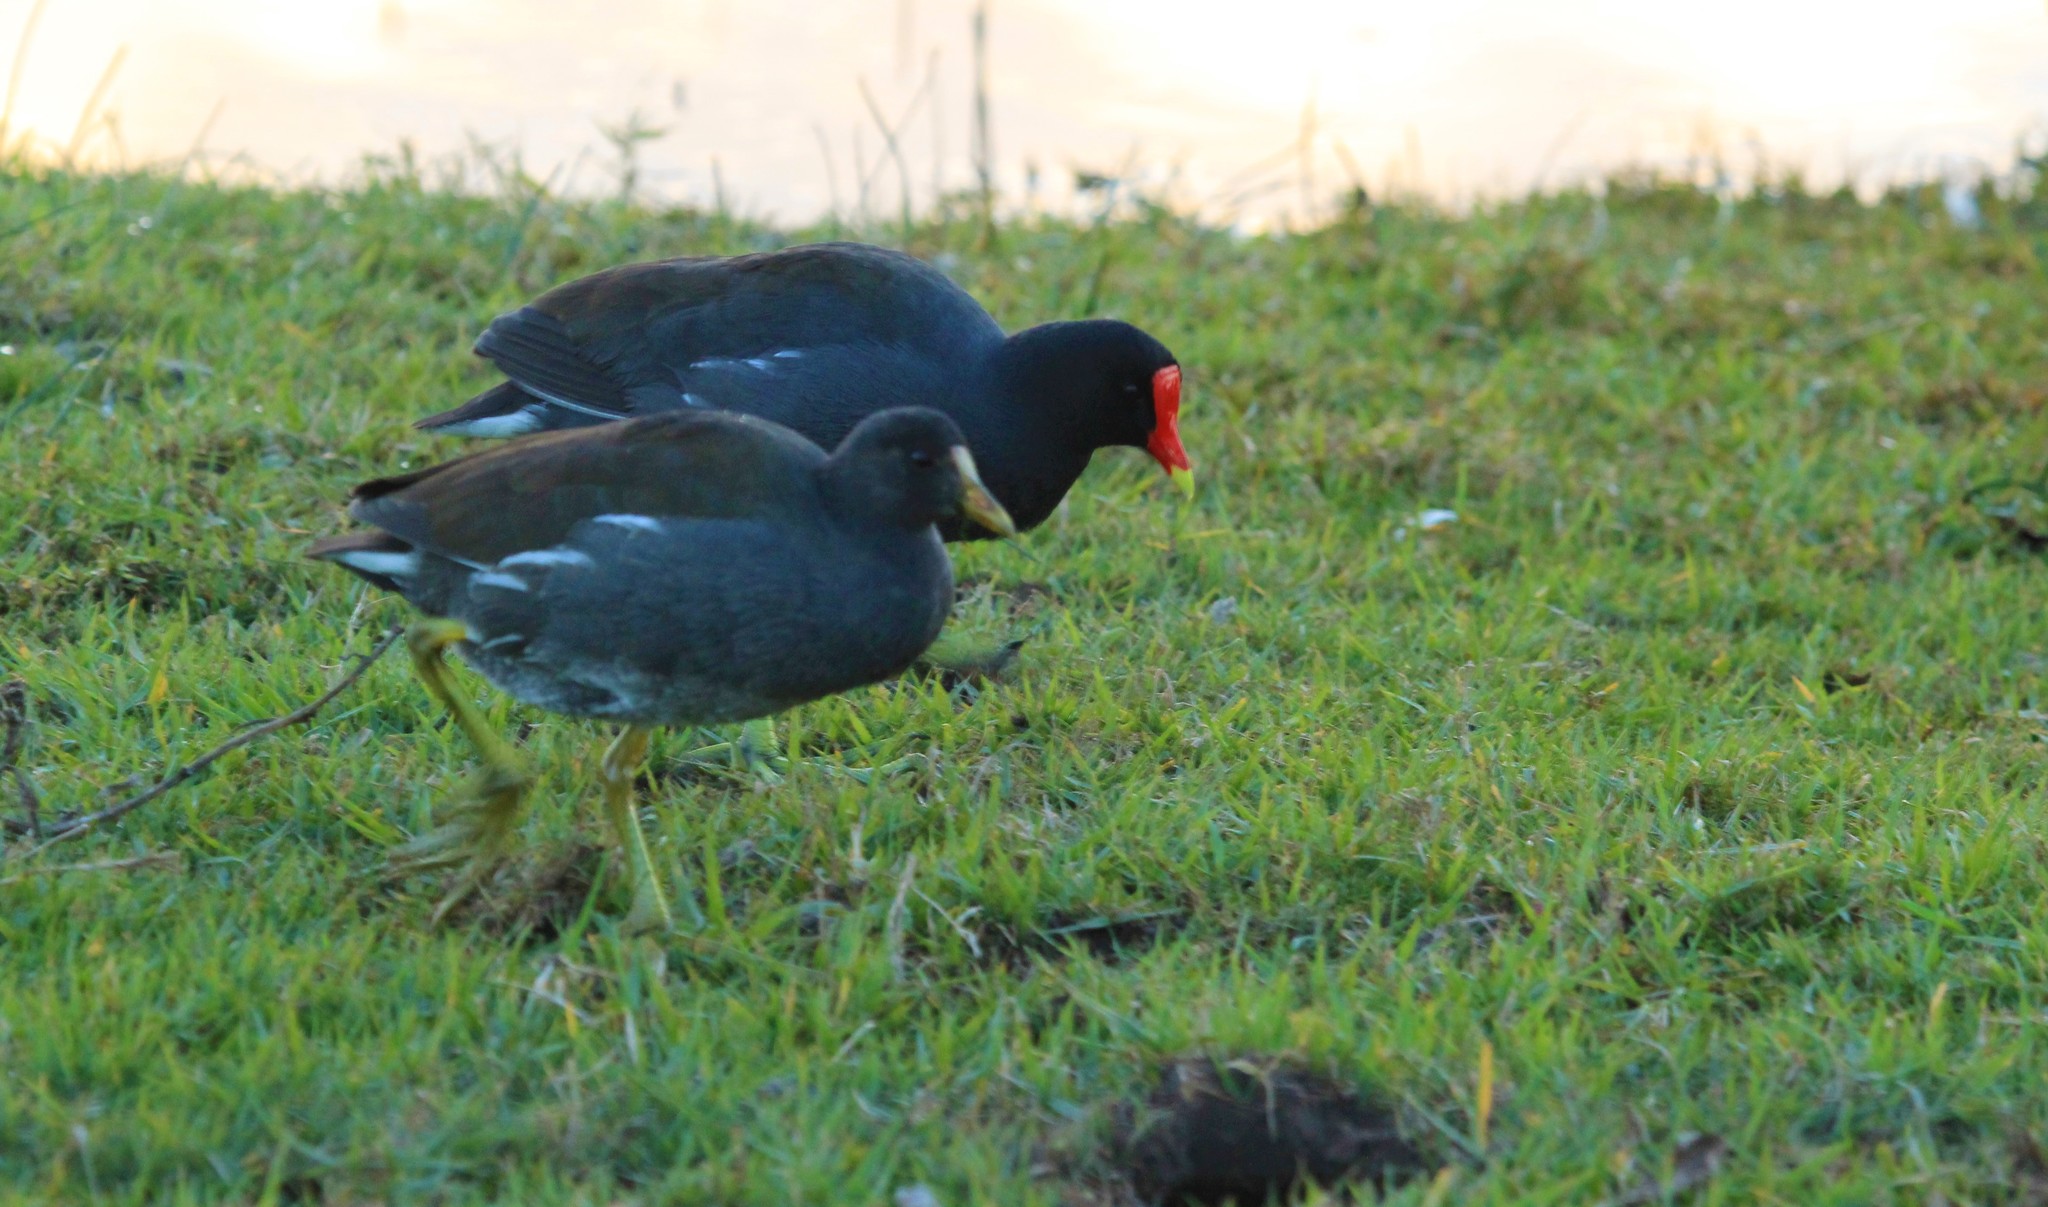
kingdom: Animalia
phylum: Chordata
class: Aves
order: Gruiformes
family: Rallidae
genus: Gallinula
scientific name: Gallinula chloropus
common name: Common moorhen
